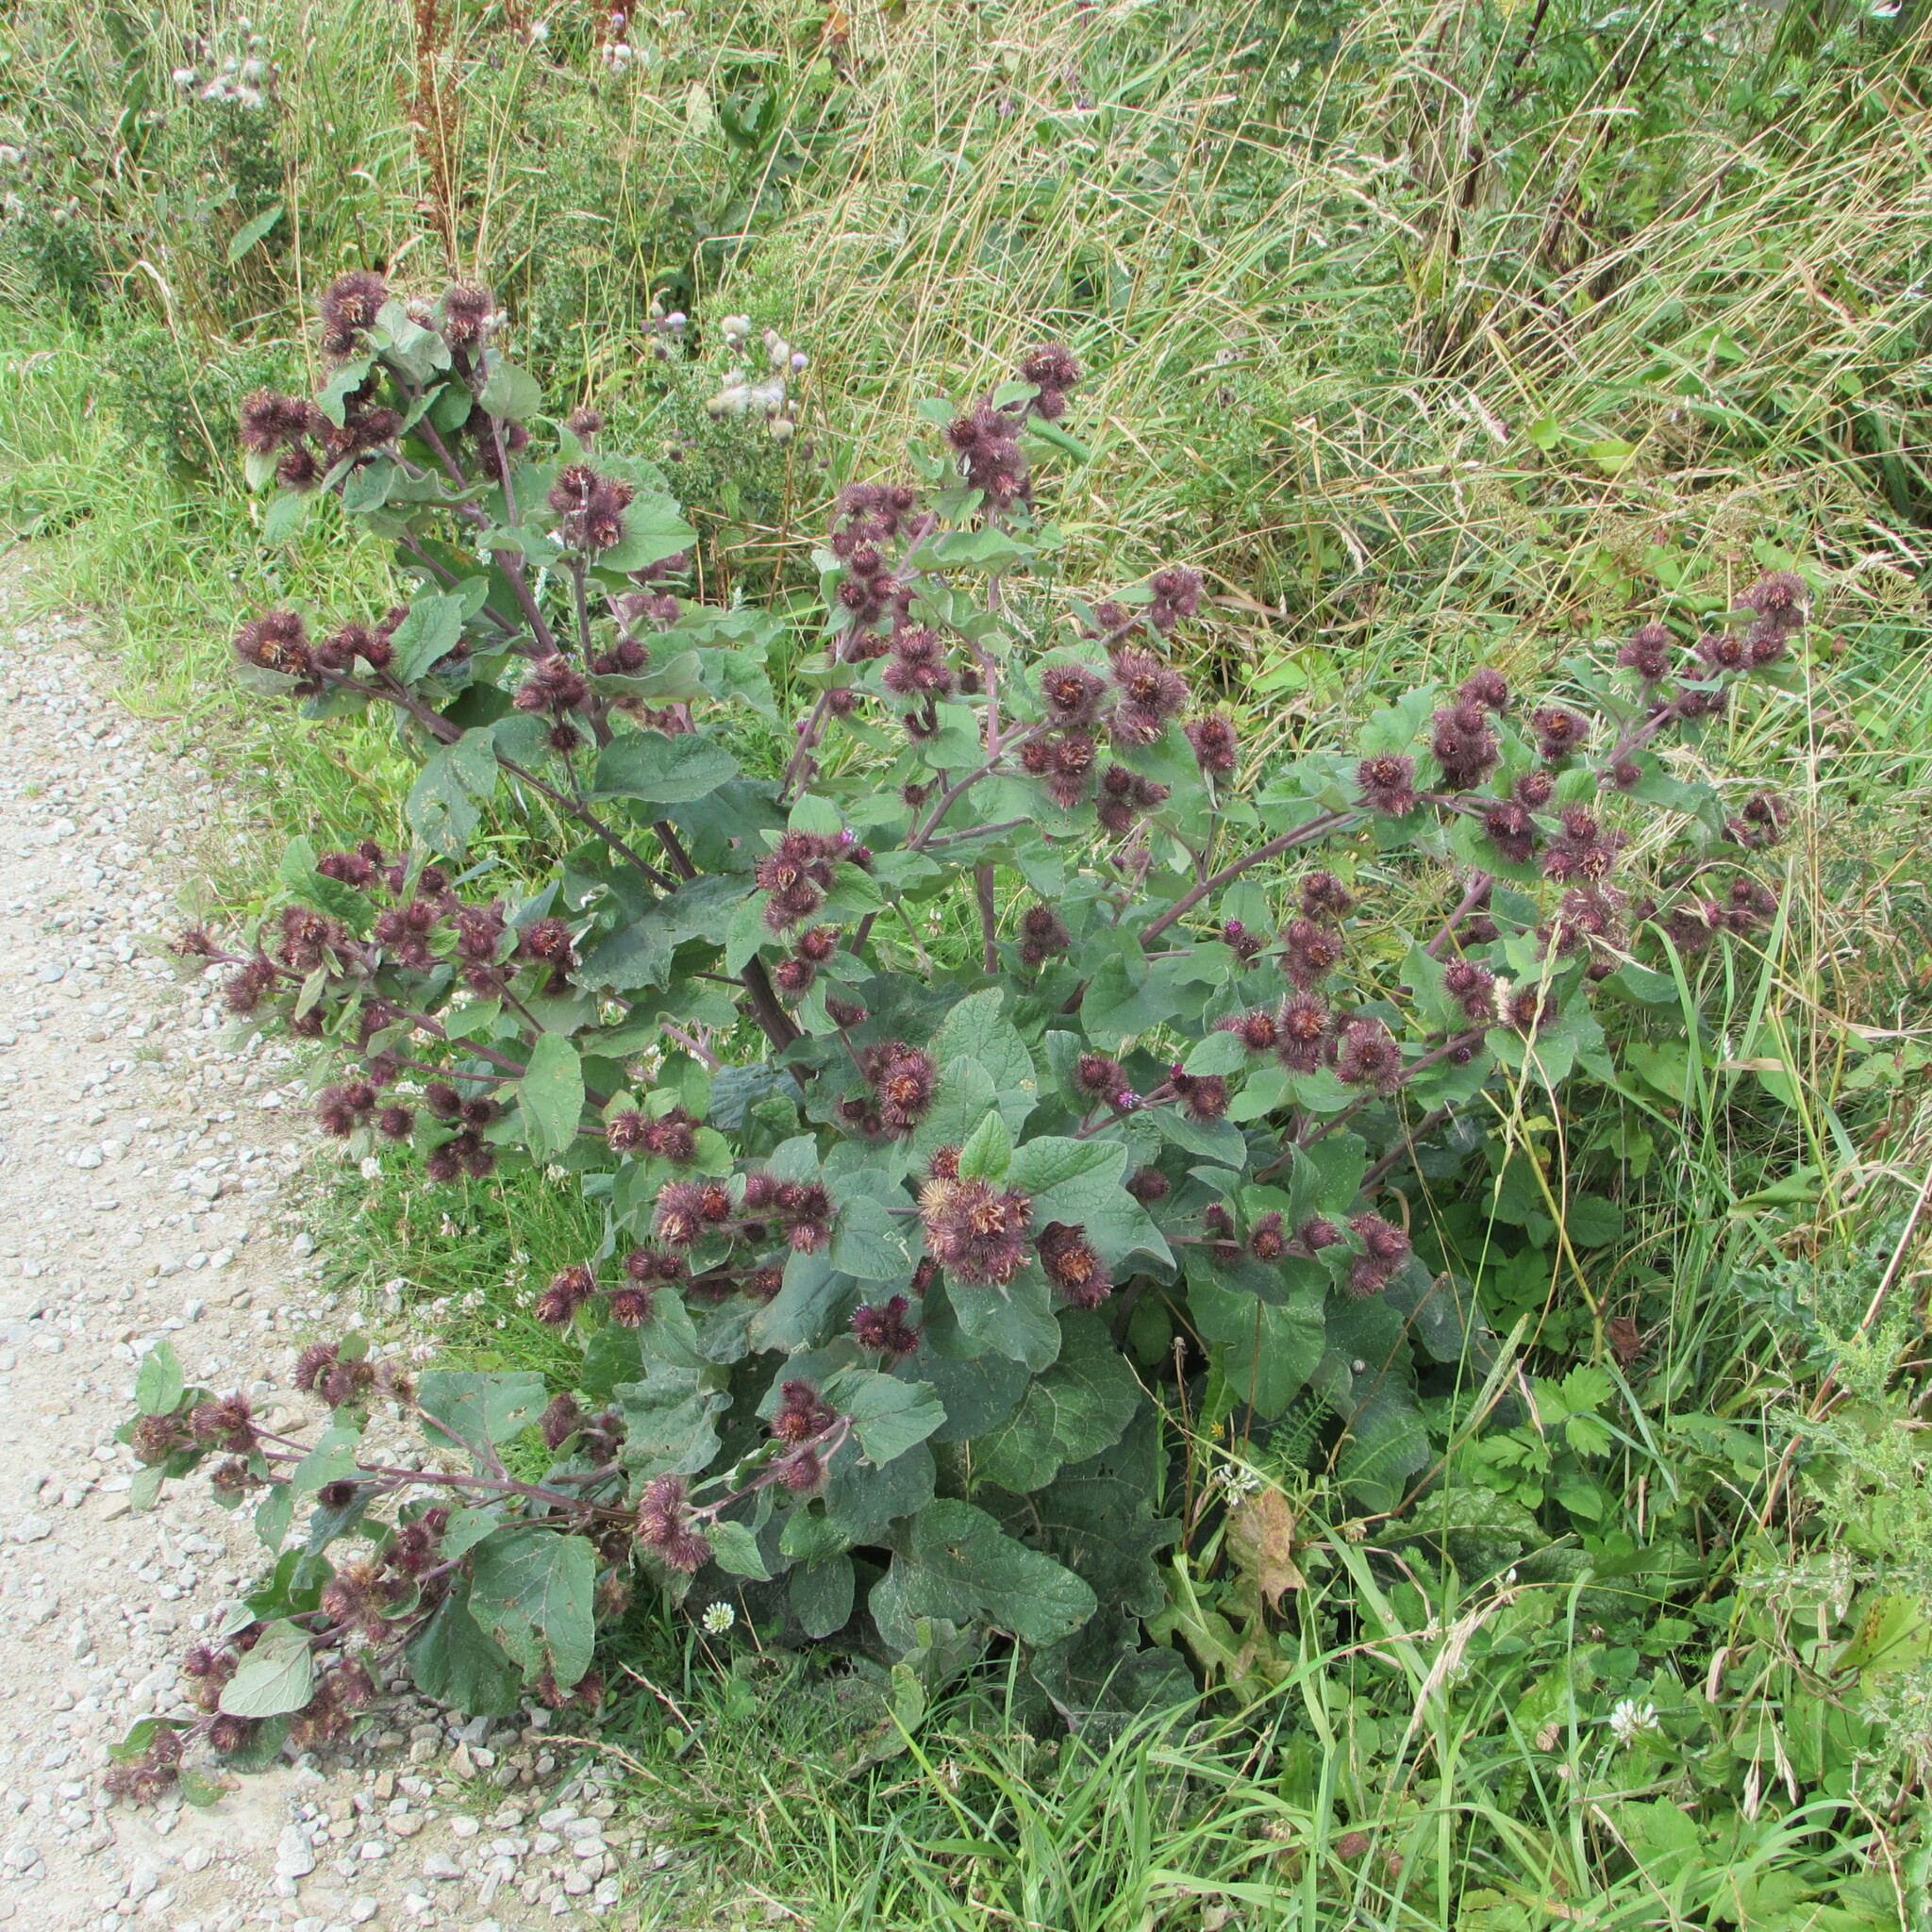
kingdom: Plantae
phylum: Tracheophyta
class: Magnoliopsida
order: Asterales
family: Asteraceae
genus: Arctium
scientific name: Arctium minus
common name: Lesser burdock
